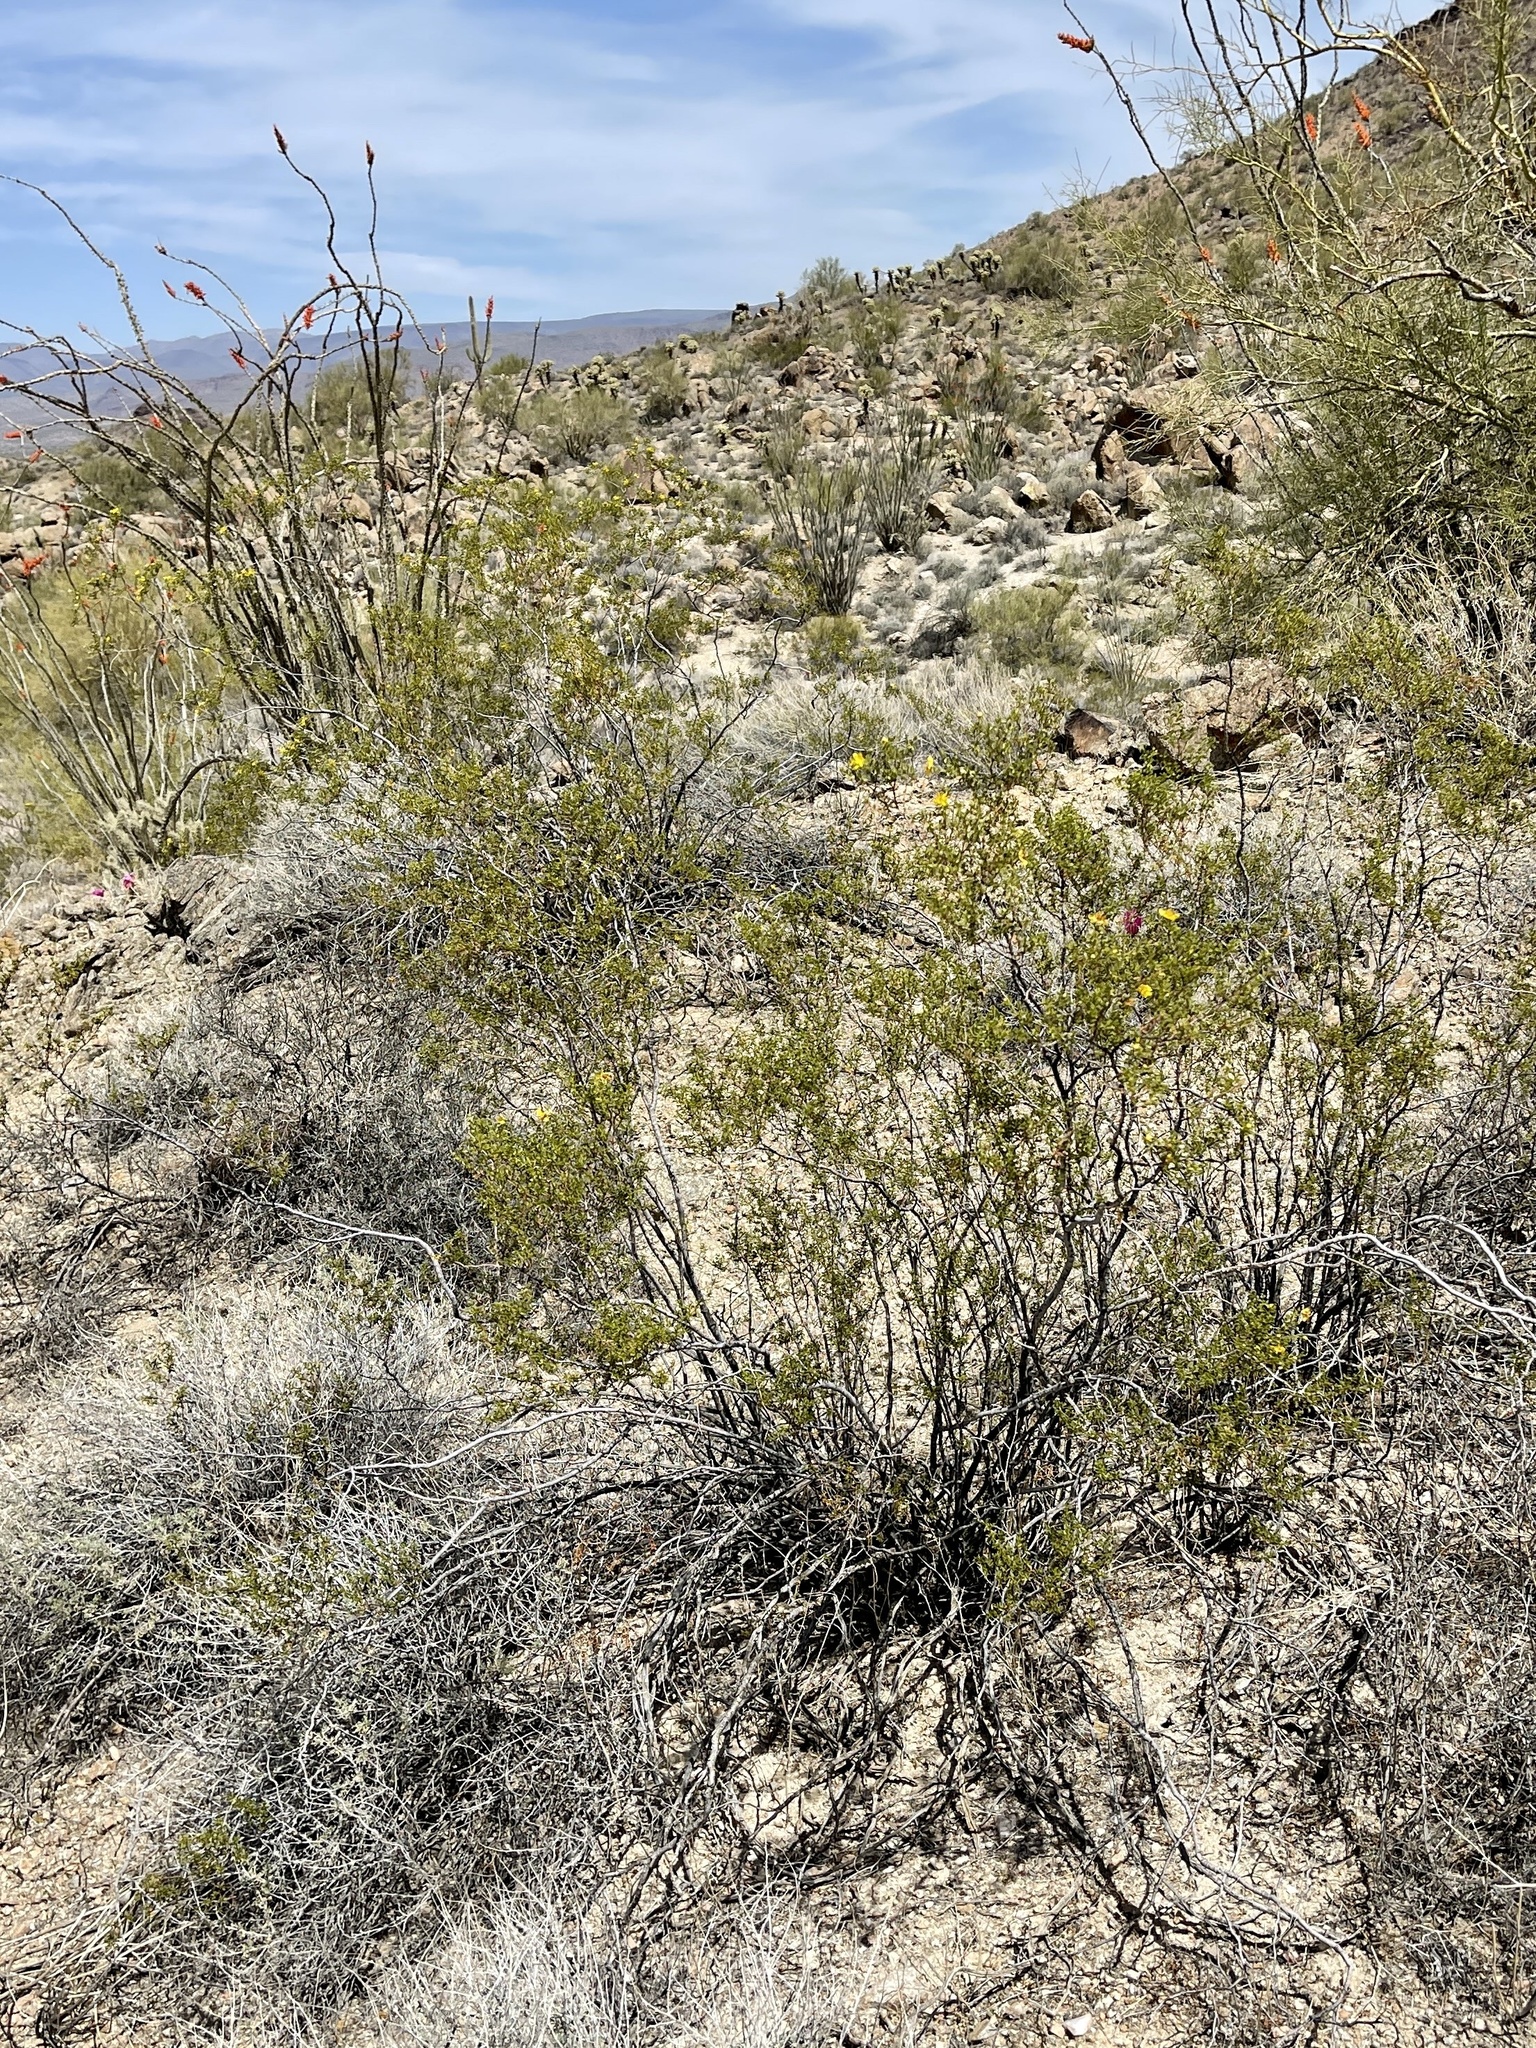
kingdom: Plantae
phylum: Tracheophyta
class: Magnoliopsida
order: Zygophyllales
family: Zygophyllaceae
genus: Larrea
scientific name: Larrea tridentata
